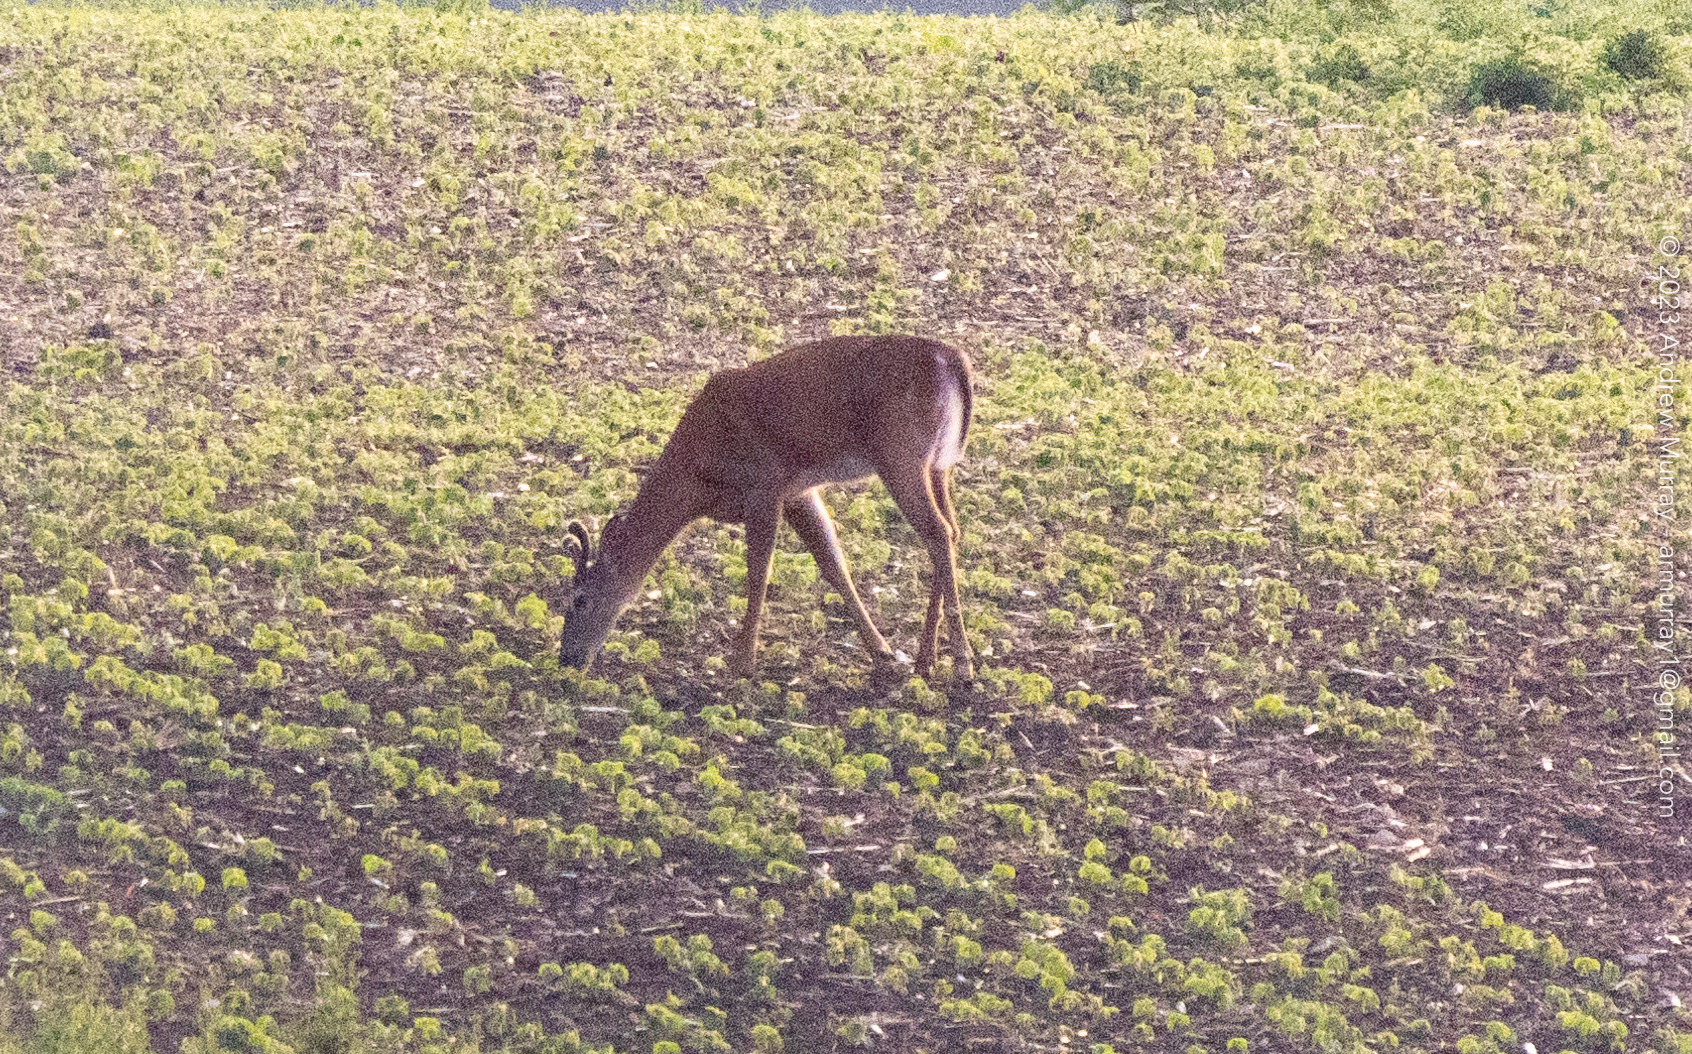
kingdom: Animalia
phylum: Chordata
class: Mammalia
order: Artiodactyla
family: Cervidae
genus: Odocoileus
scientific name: Odocoileus virginianus
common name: White-tailed deer
